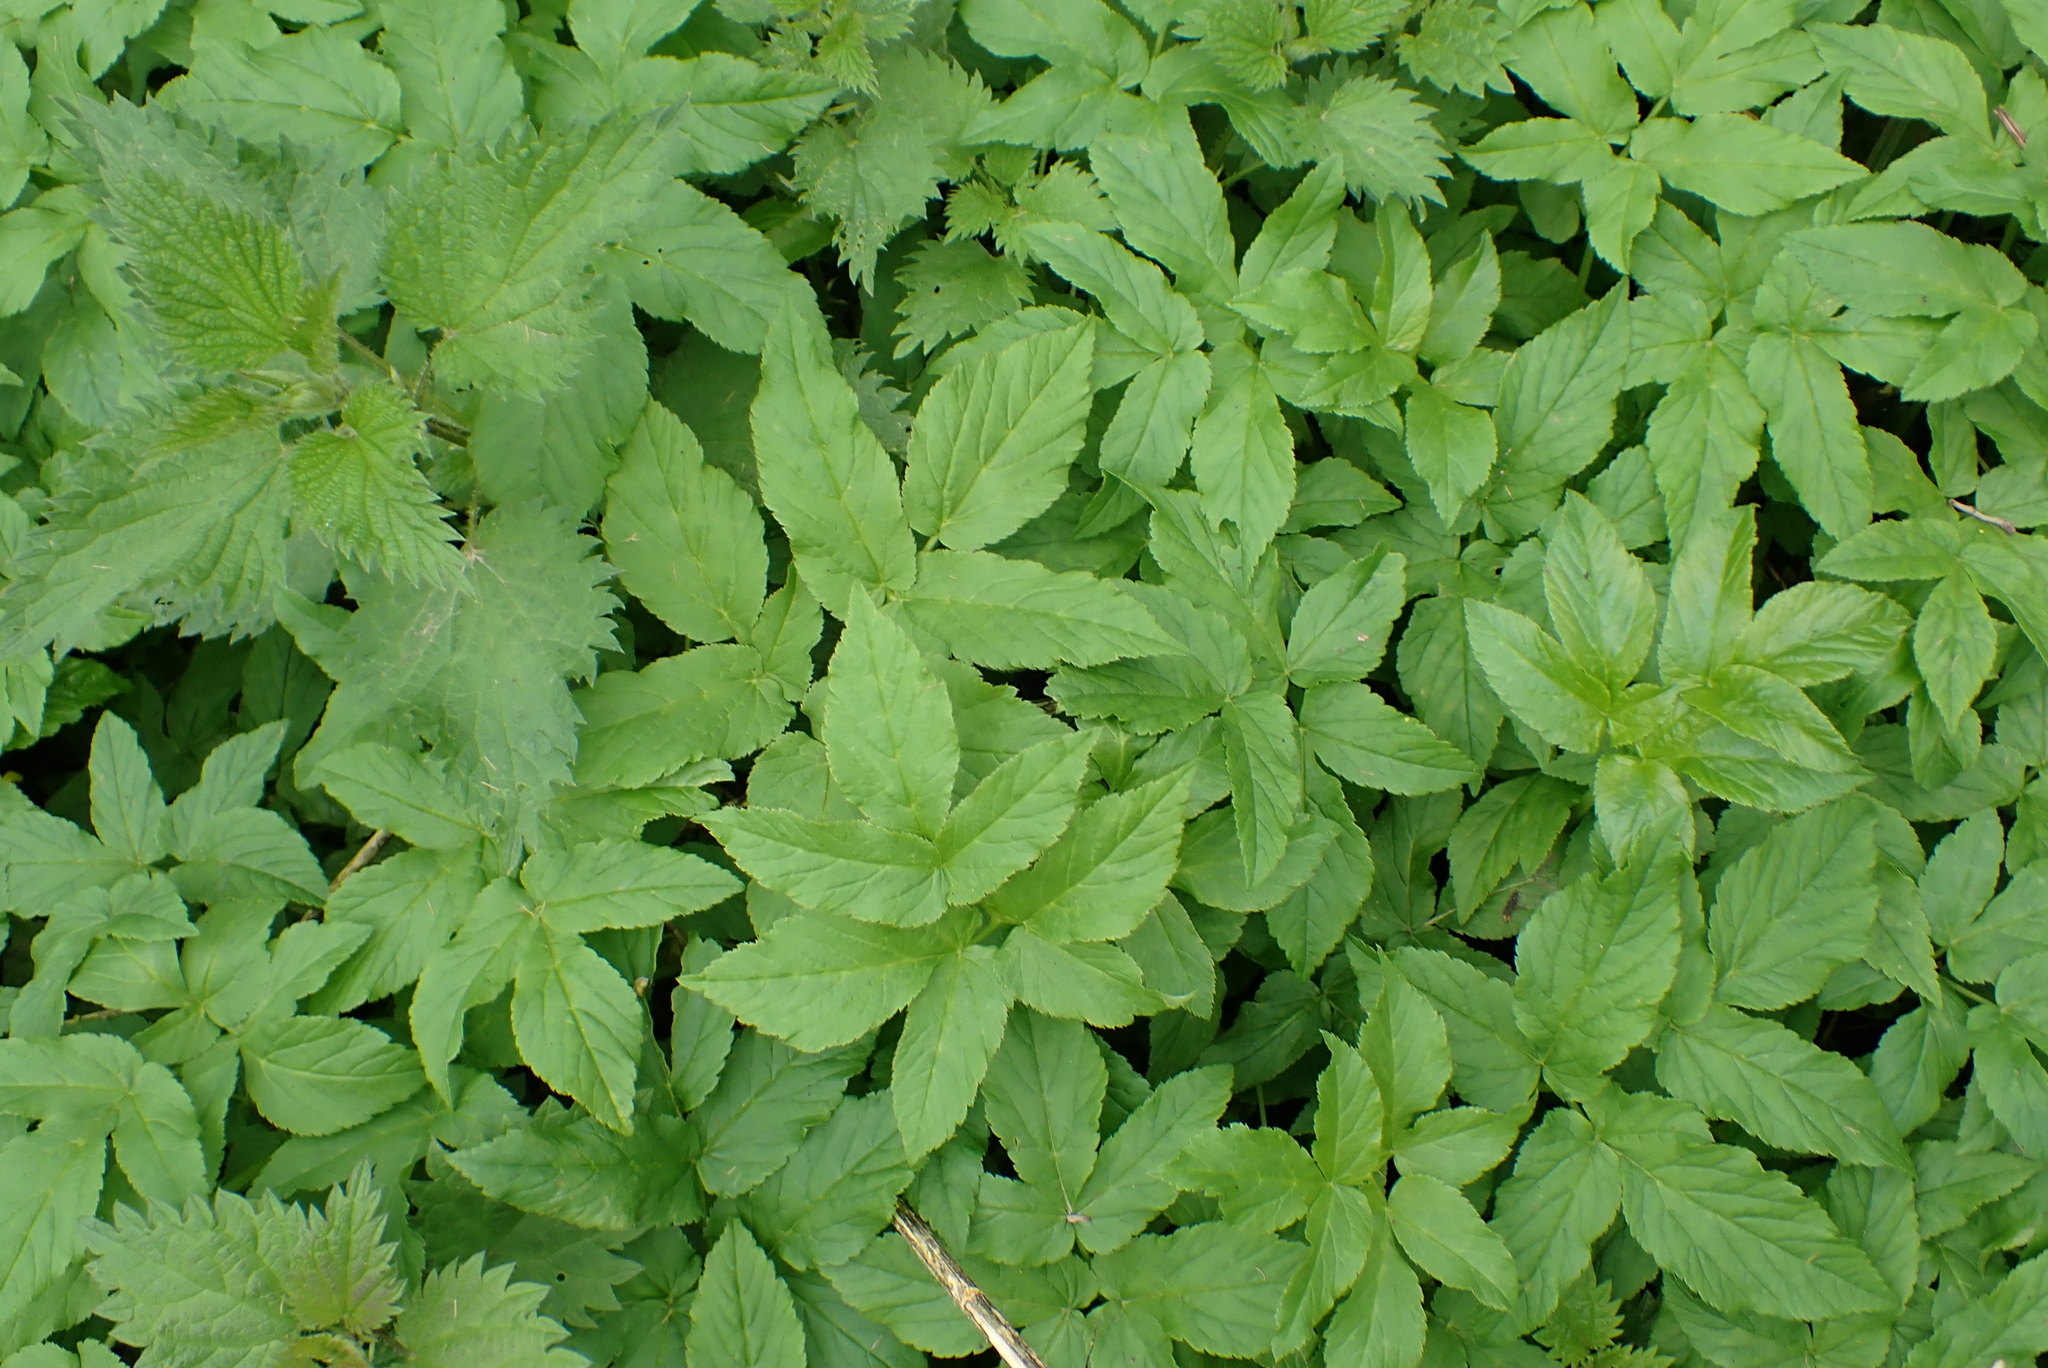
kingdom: Plantae
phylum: Tracheophyta
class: Magnoliopsida
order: Apiales
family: Apiaceae
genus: Aegopodium
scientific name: Aegopodium podagraria
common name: Ground-elder
